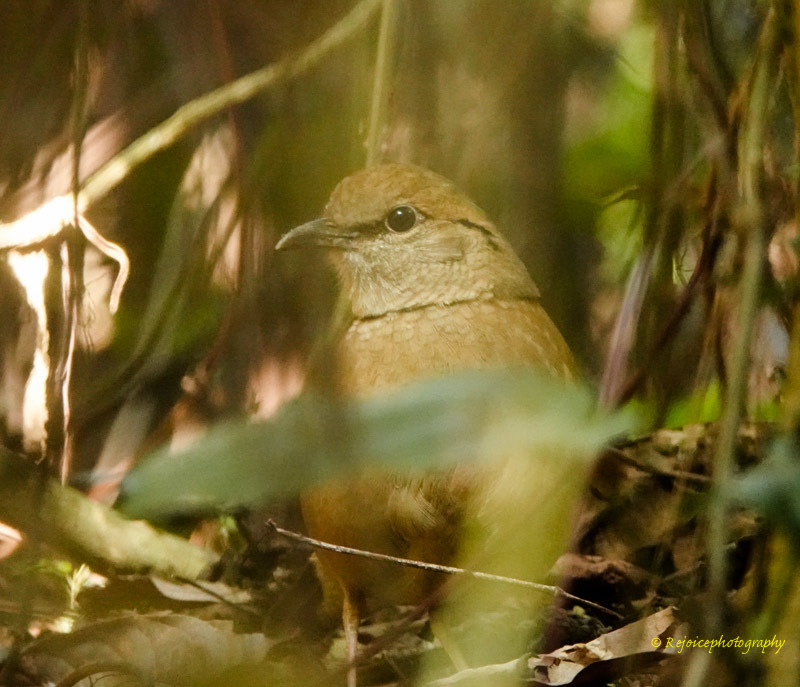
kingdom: Animalia
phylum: Chordata
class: Aves
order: Passeriformes
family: Pittidae
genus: Pitta
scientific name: Pitta nipalensis
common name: Blue-naped pitta
